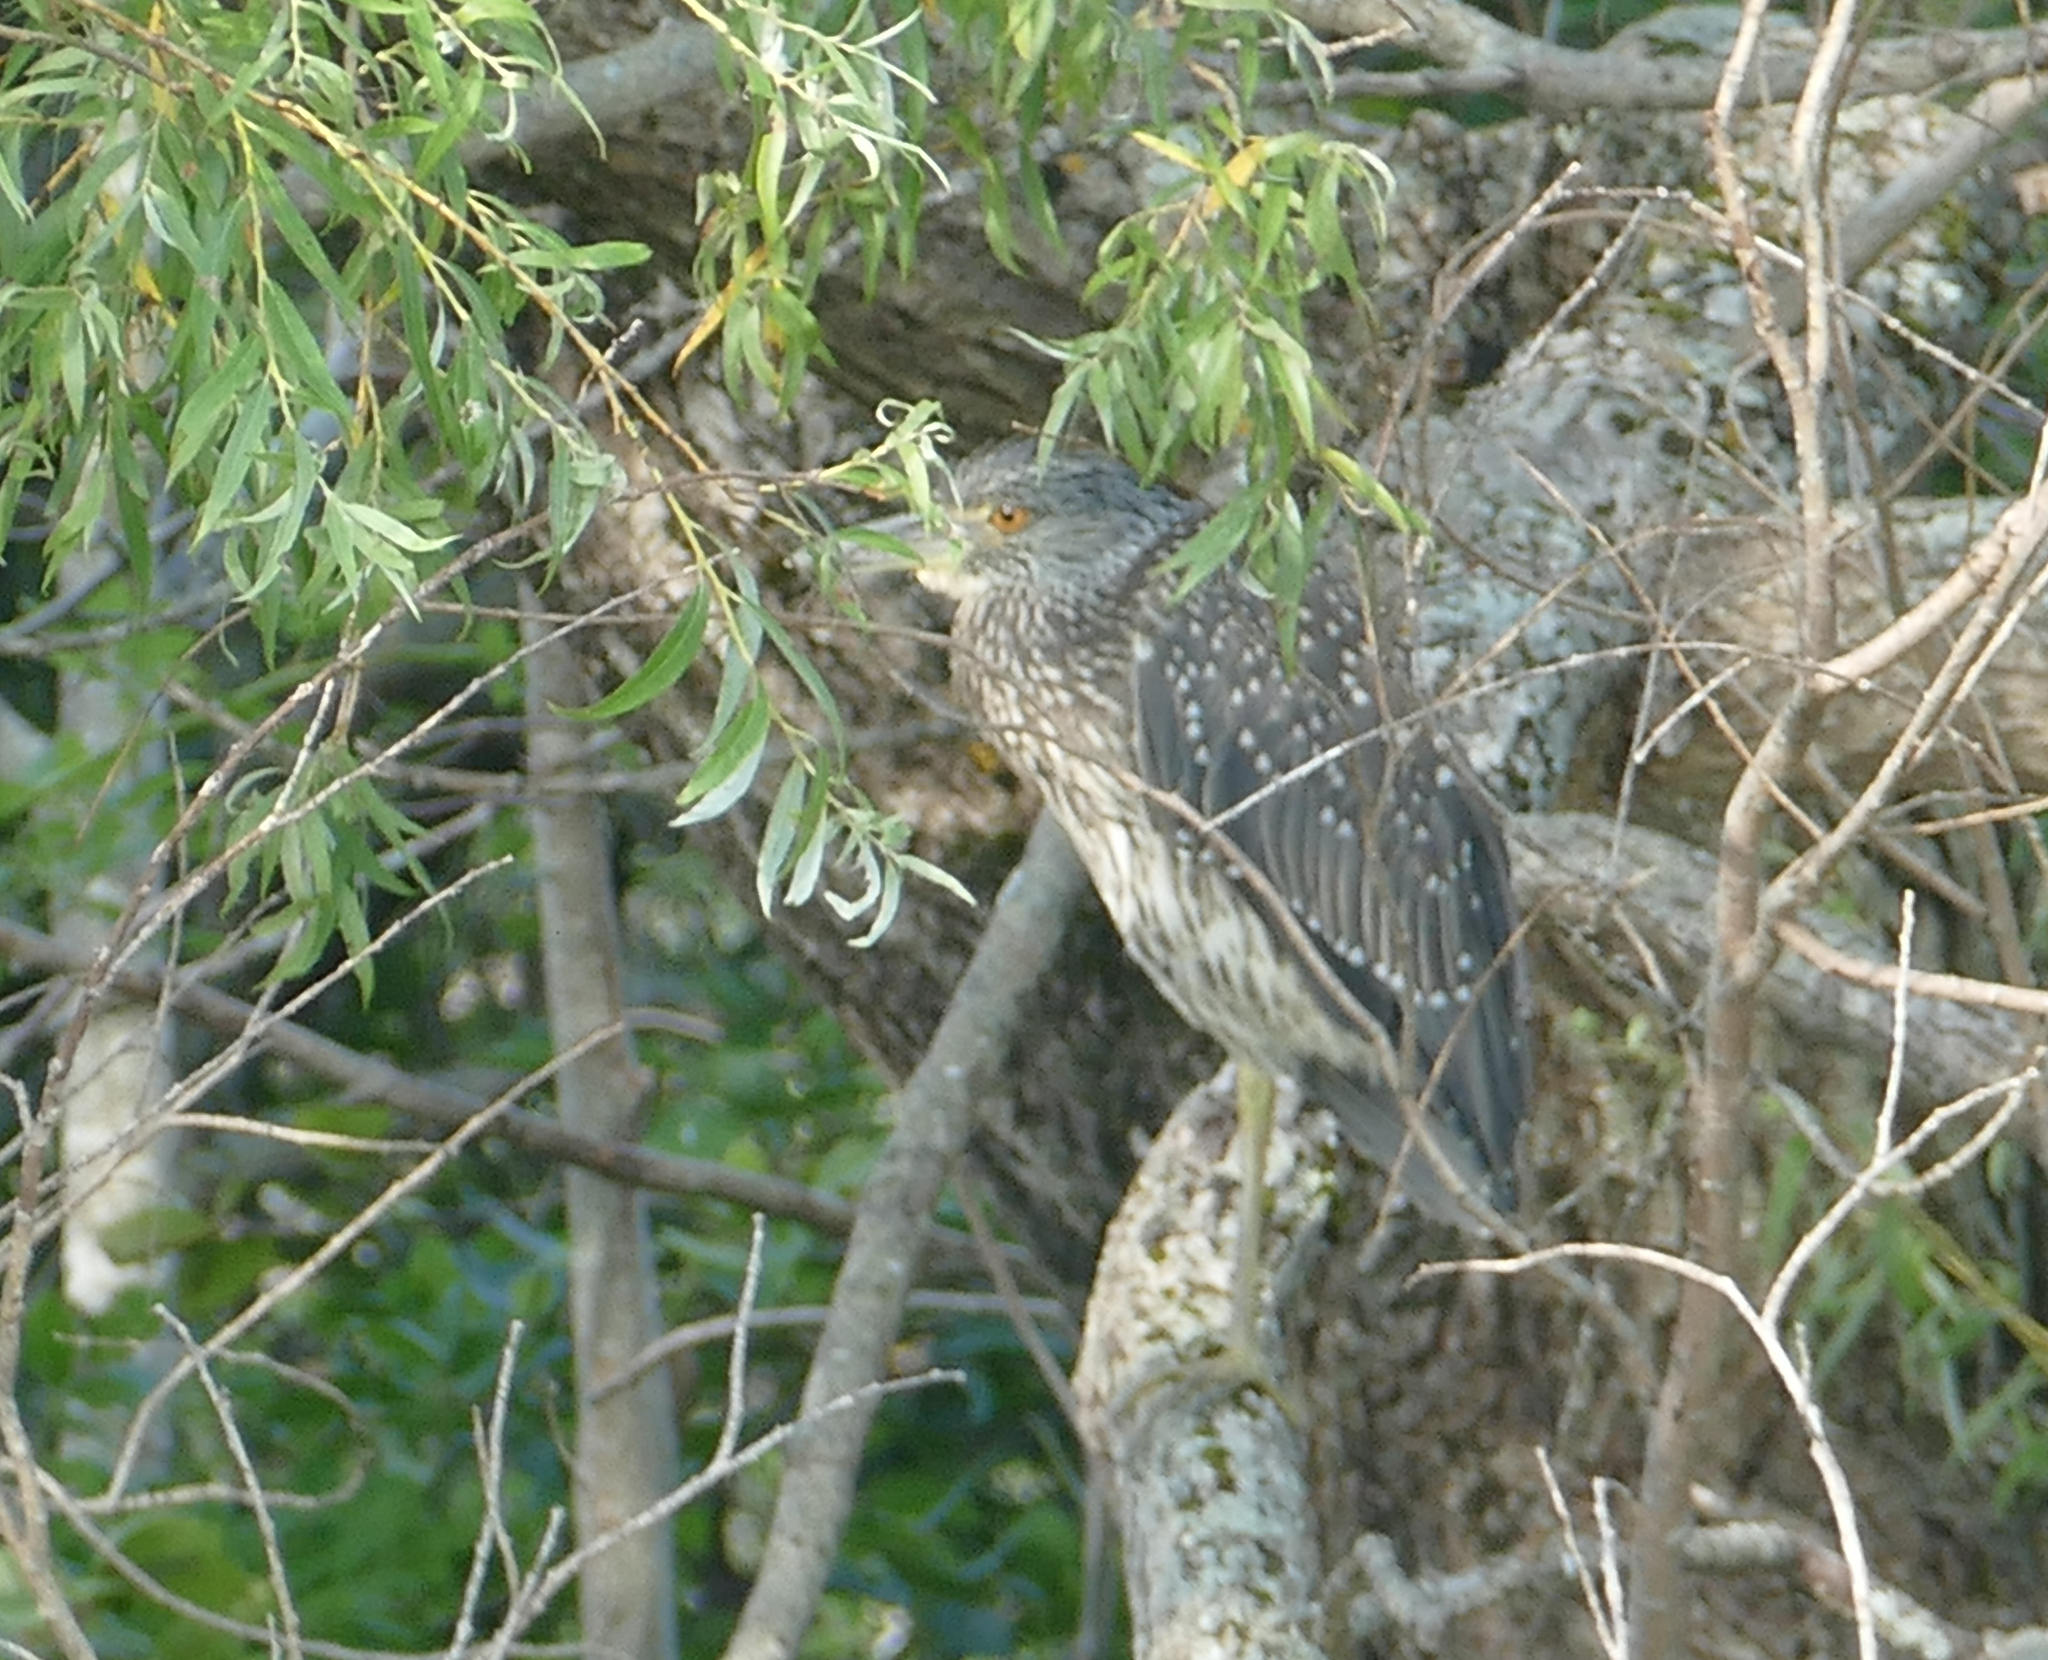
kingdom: Animalia
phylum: Chordata
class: Aves
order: Pelecaniformes
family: Ardeidae
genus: Nyctanassa
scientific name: Nyctanassa violacea
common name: Yellow-crowned night heron
